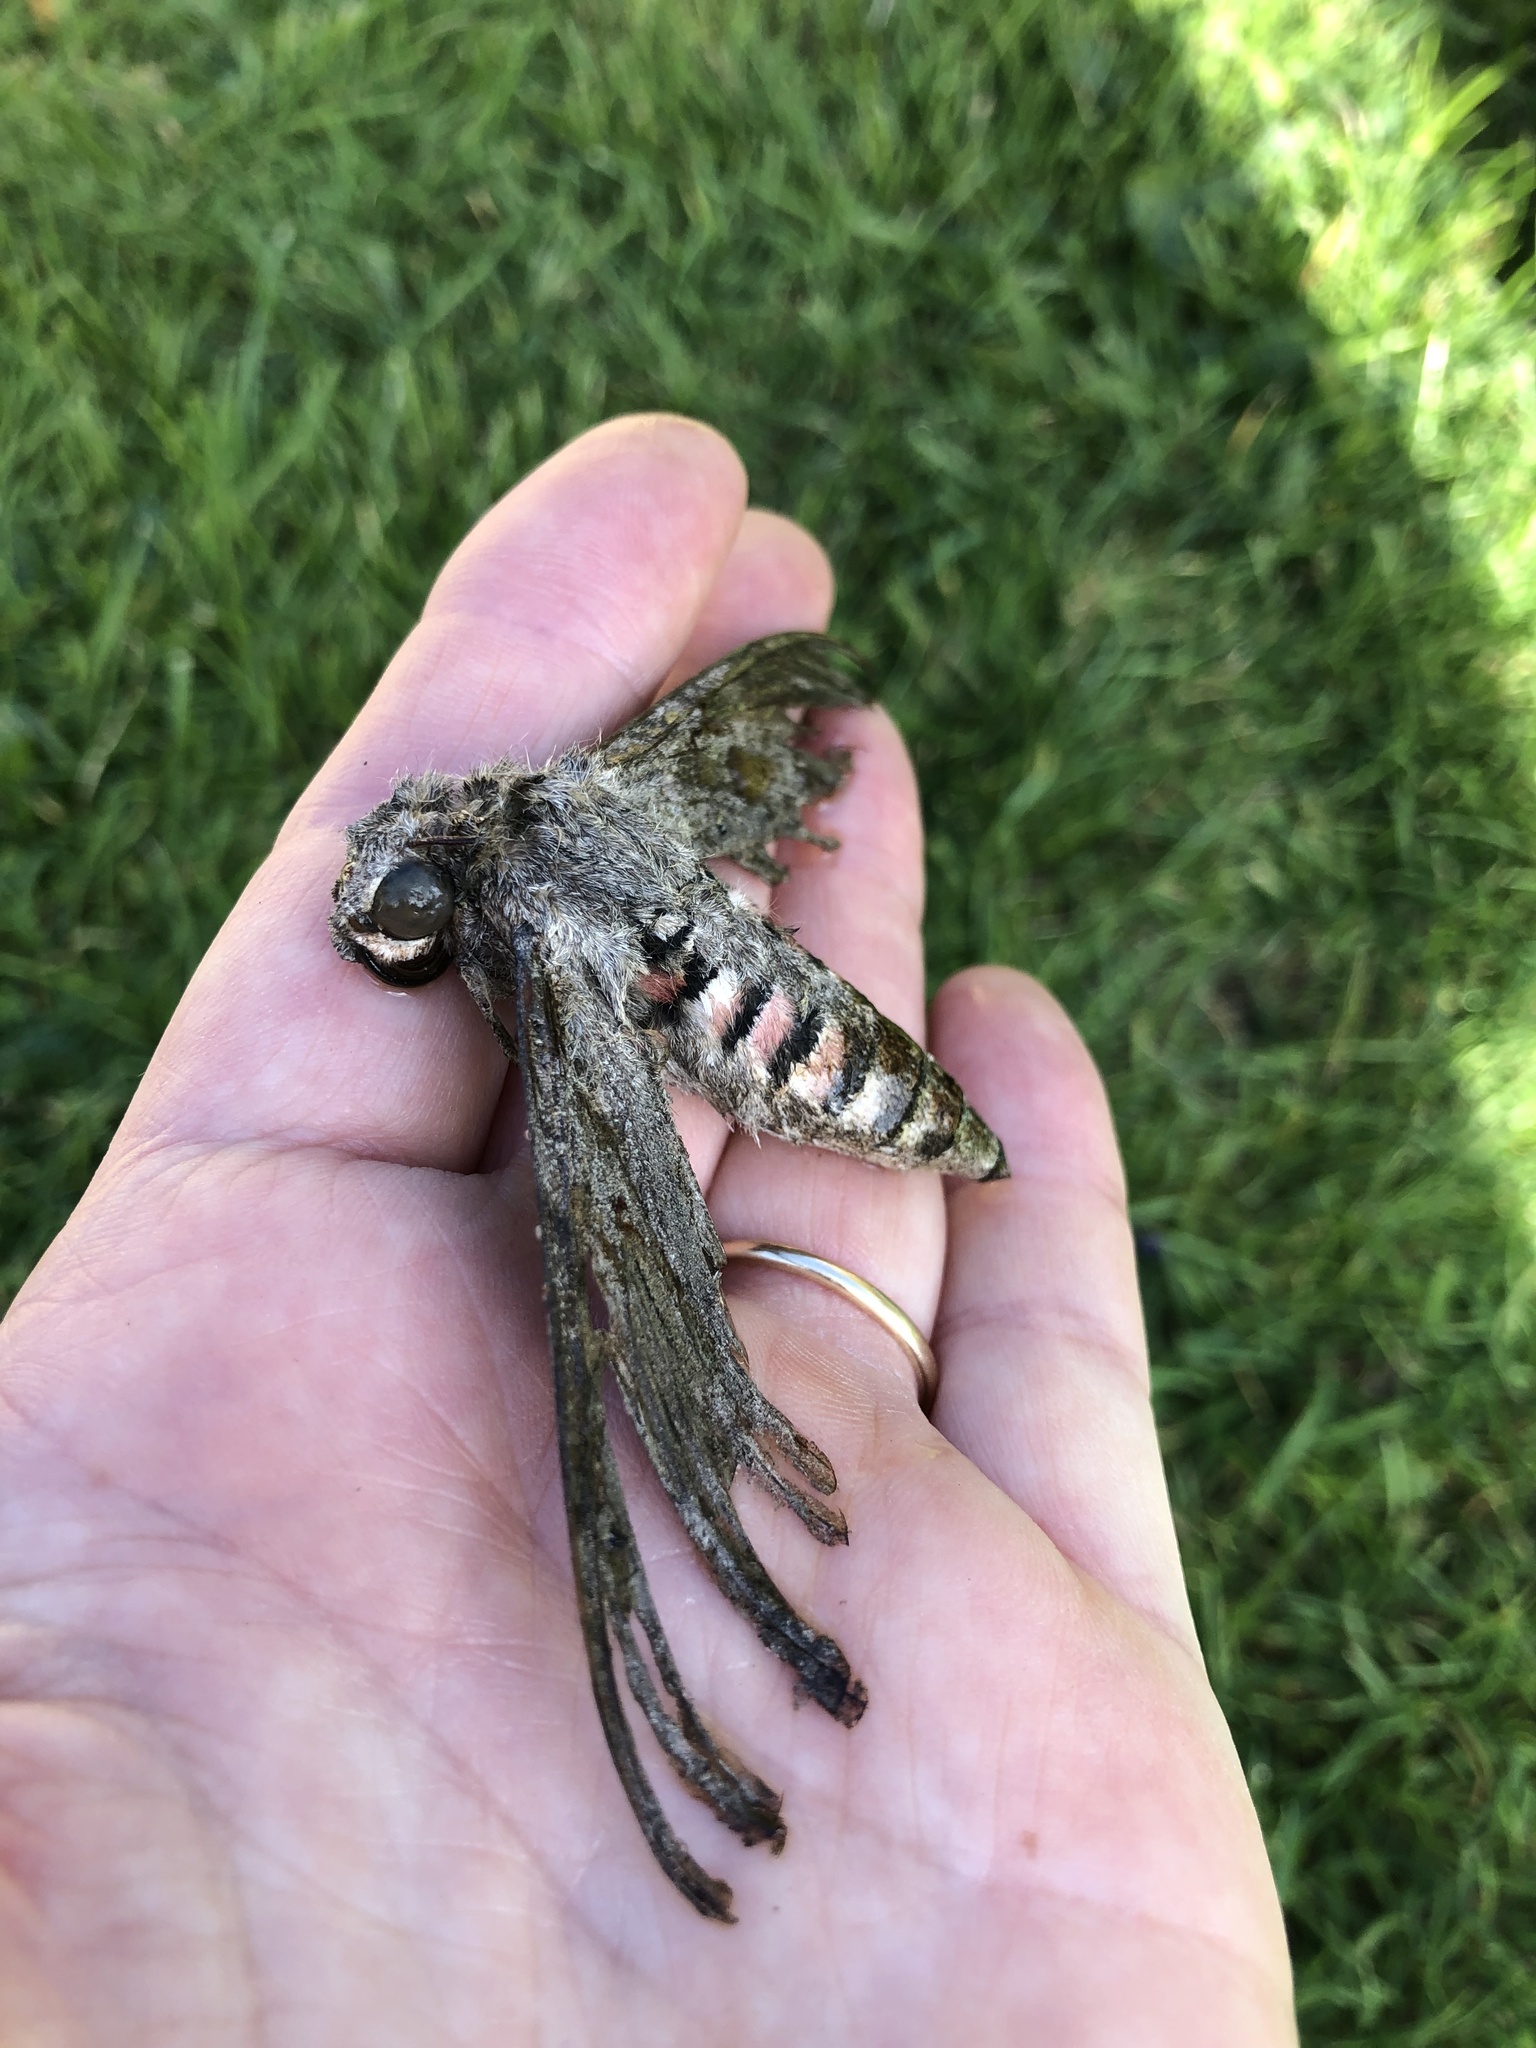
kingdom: Animalia
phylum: Arthropoda
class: Insecta
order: Lepidoptera
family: Sphingidae
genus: Agrius
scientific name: Agrius convolvuli
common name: Convolvulus hawkmoth
